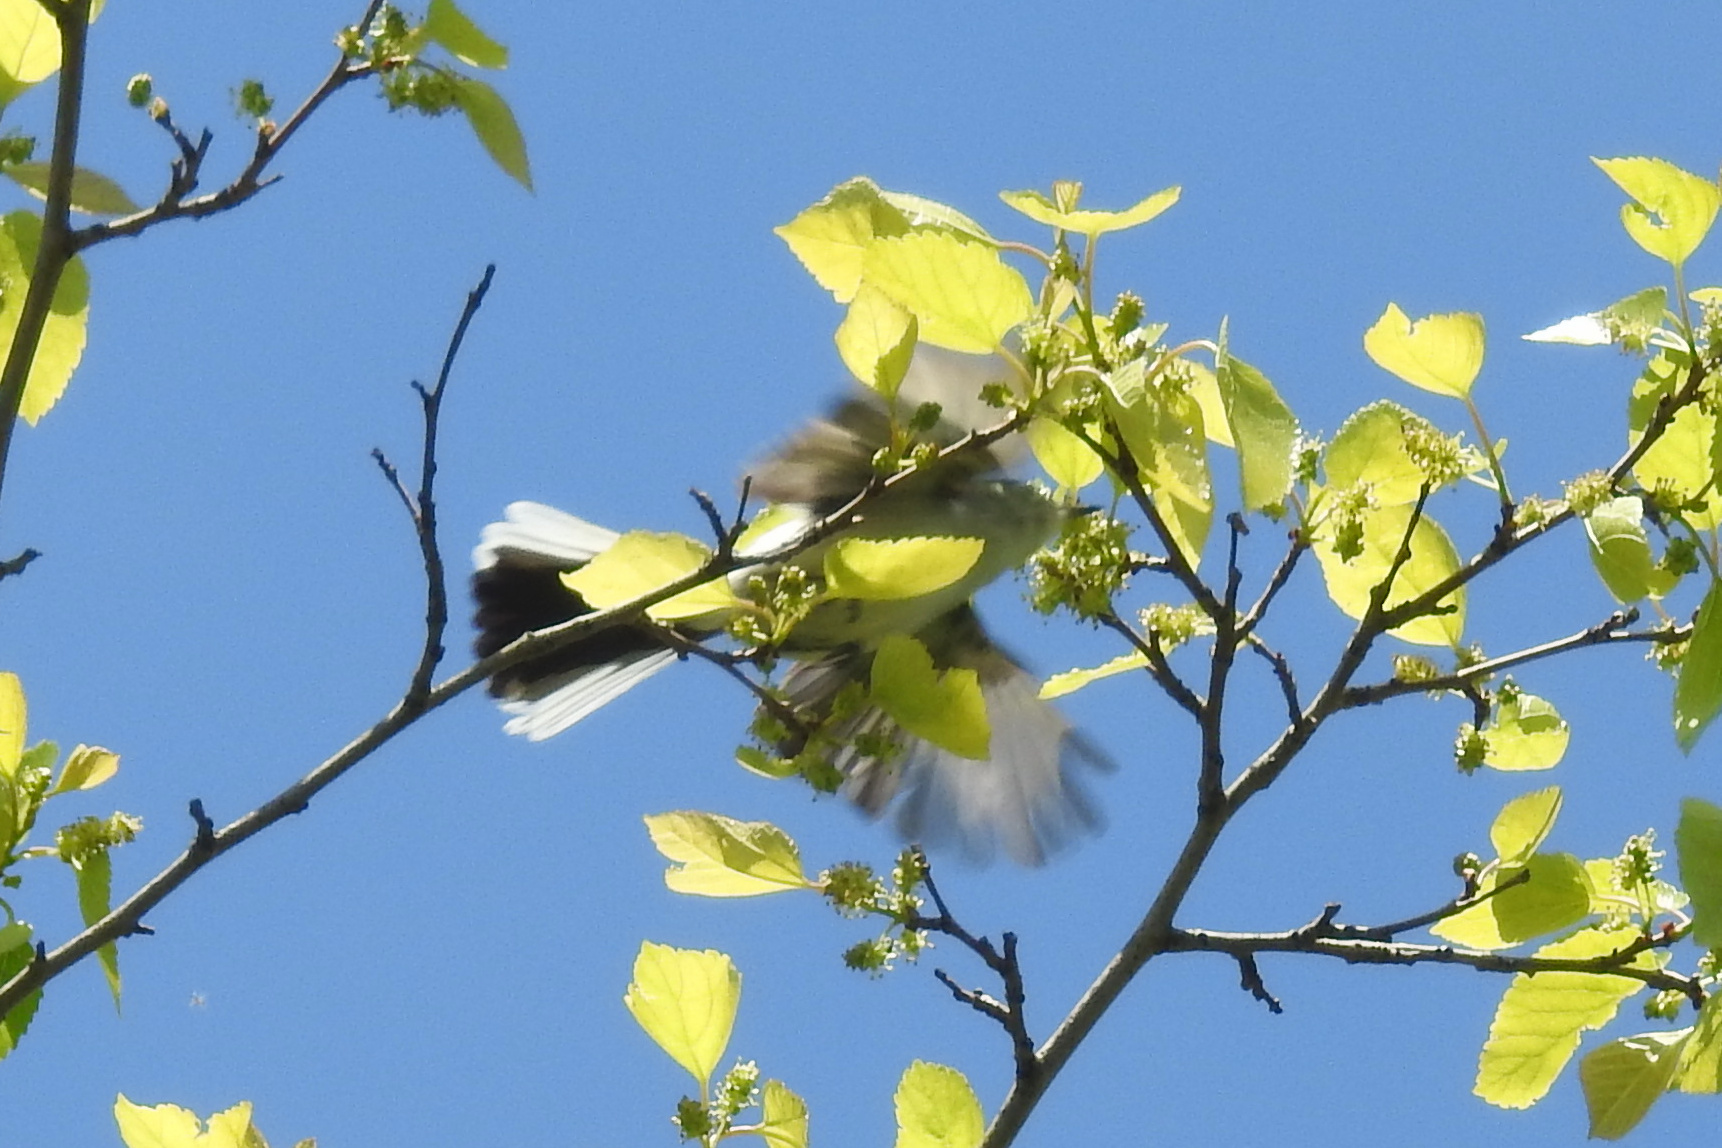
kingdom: Animalia
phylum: Chordata
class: Aves
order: Passeriformes
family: Polioptilidae
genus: Polioptila
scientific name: Polioptila caerulea
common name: Blue-gray gnatcatcher
